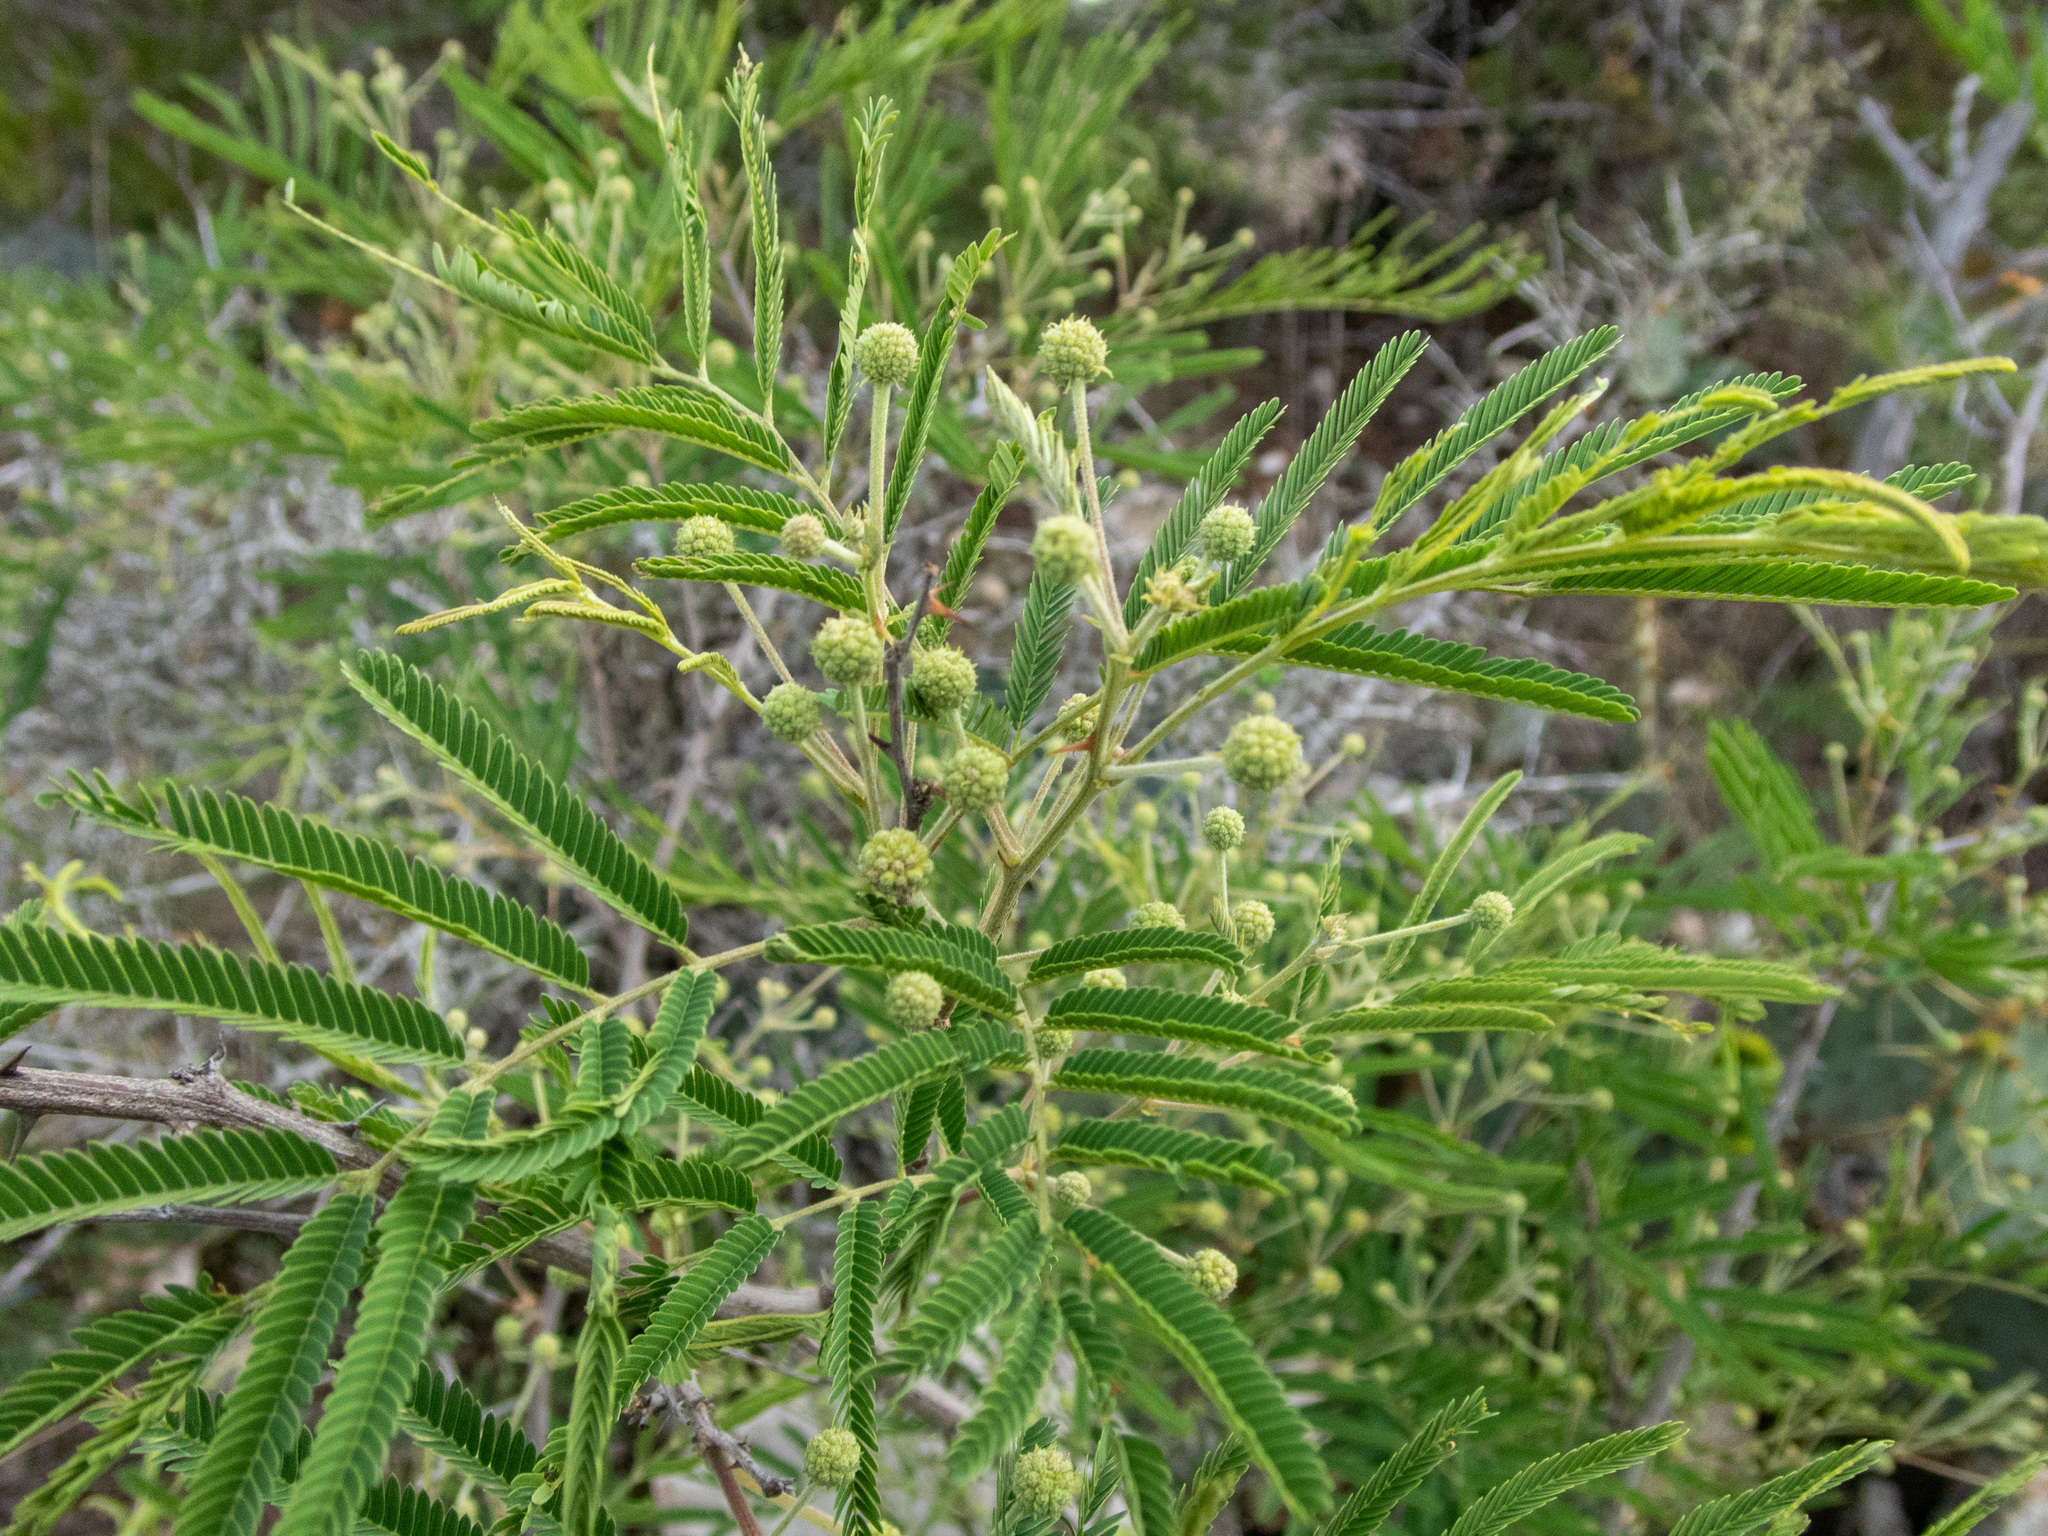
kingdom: Plantae
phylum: Tracheophyta
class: Magnoliopsida
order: Fabales
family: Fabaceae
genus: Senegalia
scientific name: Senegalia berlandieri
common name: Berlandier acacia
